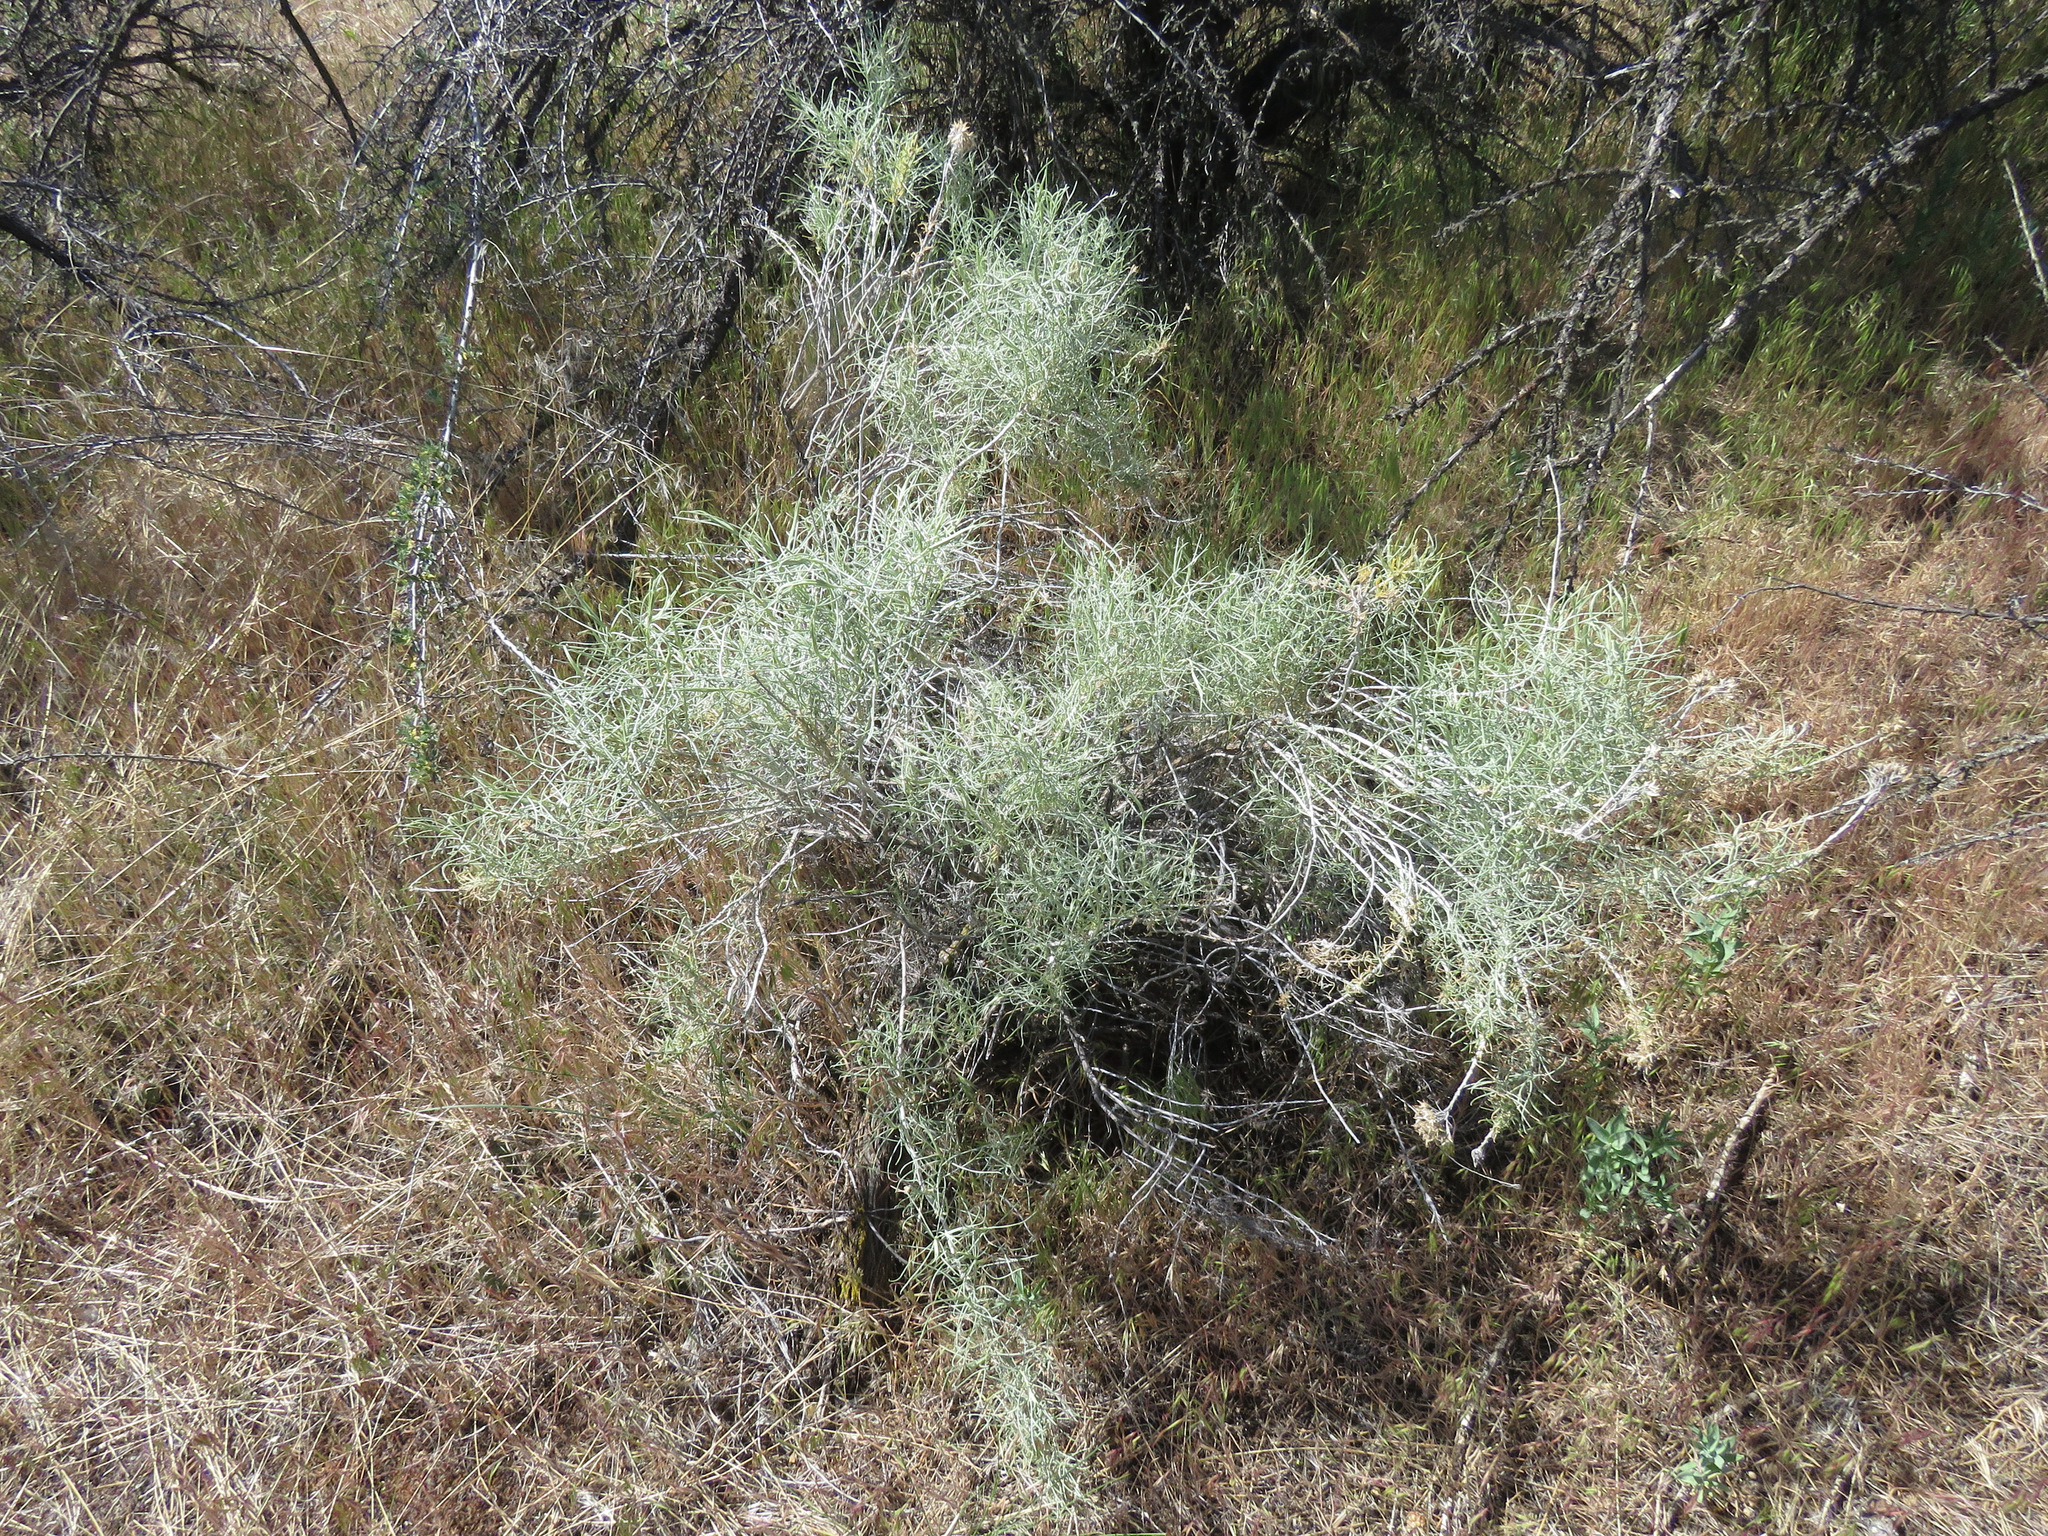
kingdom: Plantae
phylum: Tracheophyta
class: Magnoliopsida
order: Asterales
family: Asteraceae
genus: Ericameria
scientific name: Ericameria nauseosa
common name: Rubber rabbitbrush
